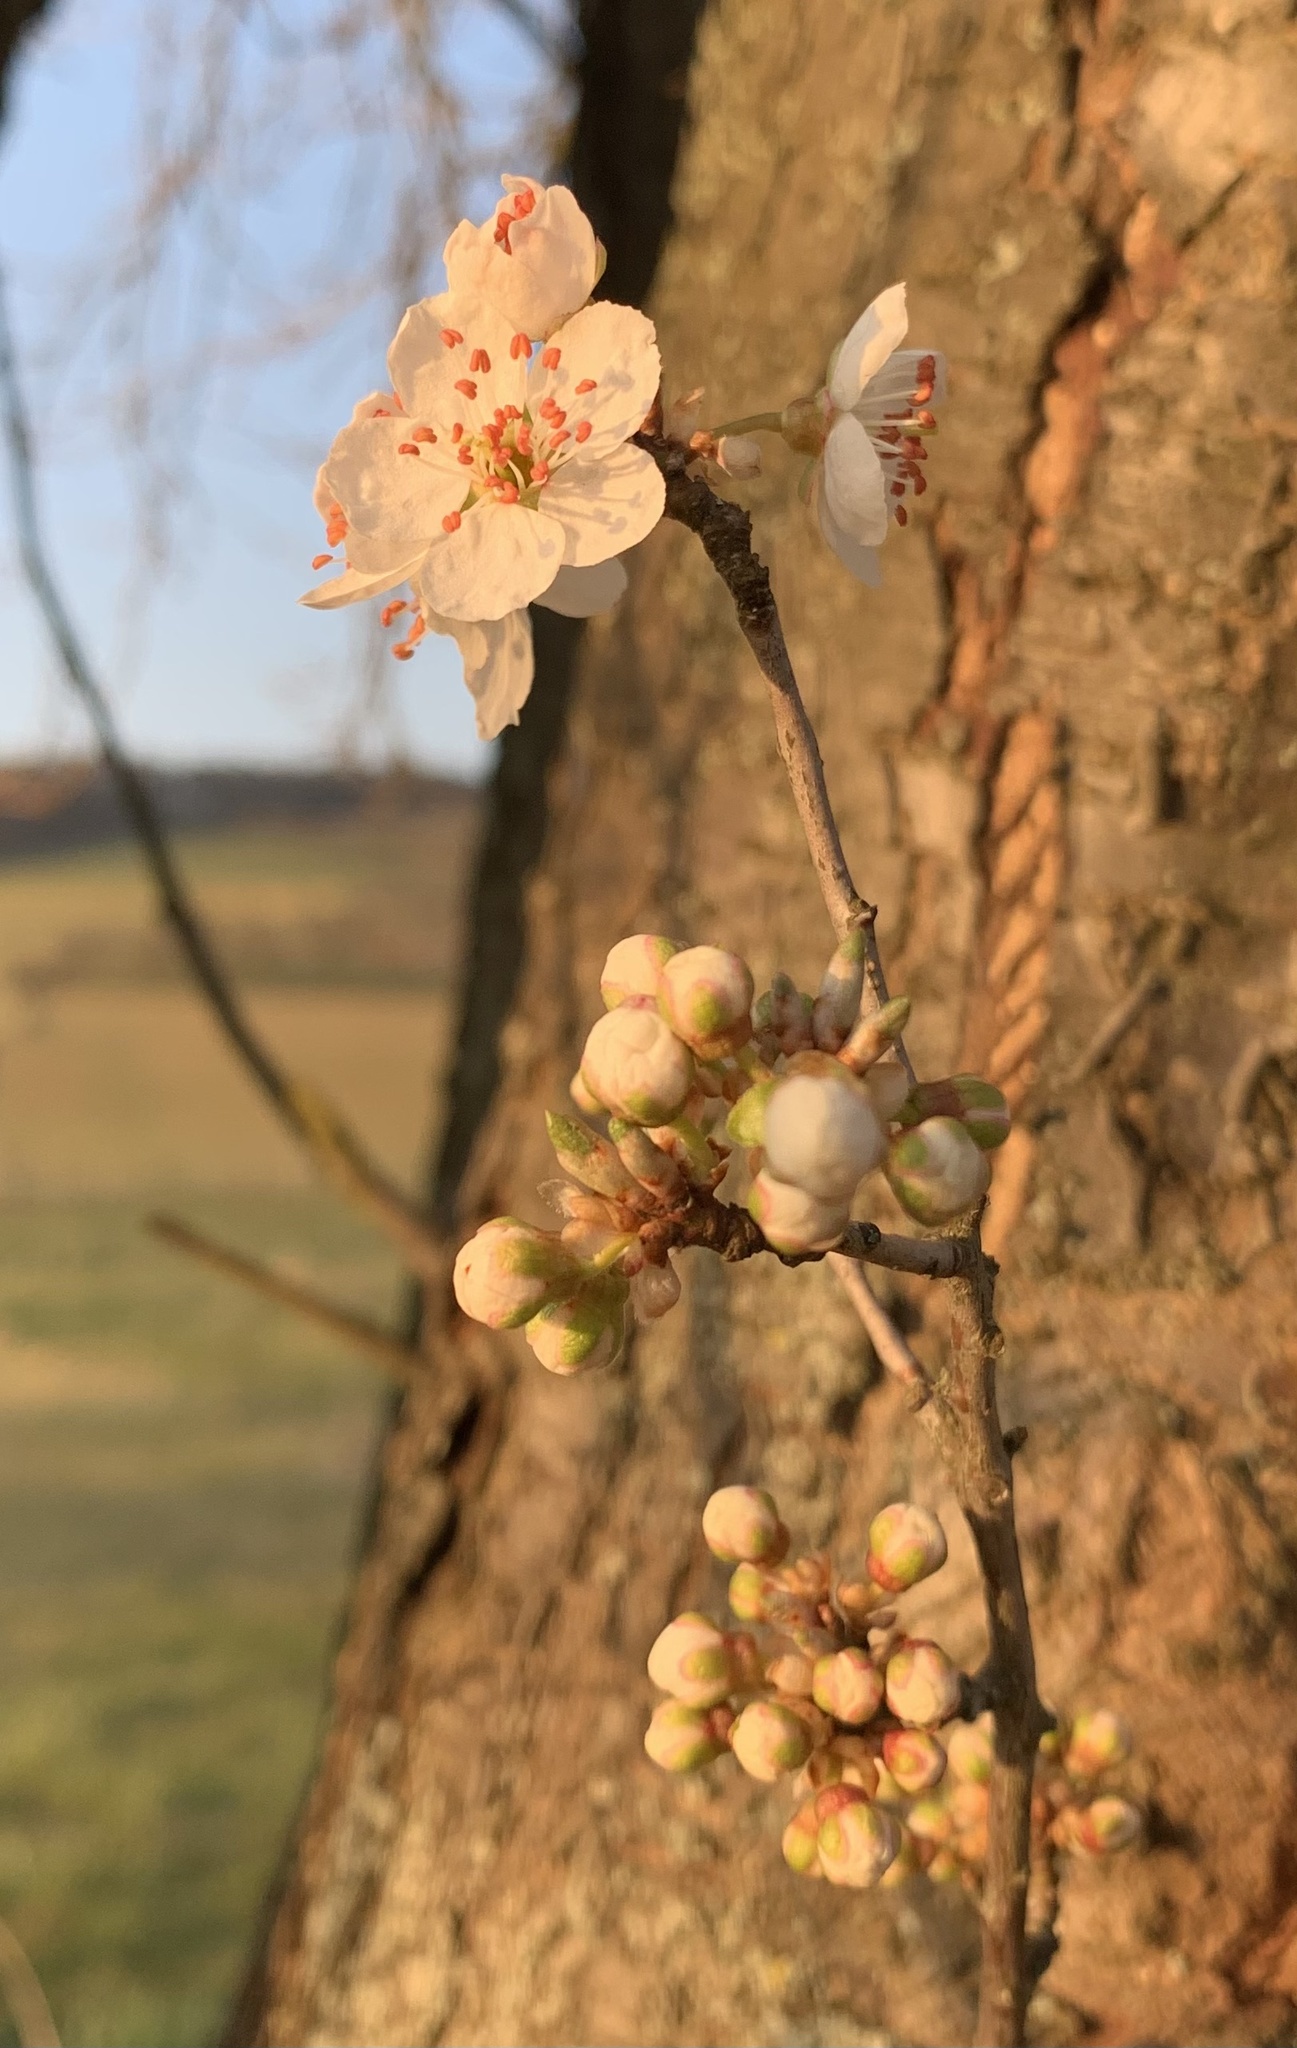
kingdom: Plantae
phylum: Tracheophyta
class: Magnoliopsida
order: Rosales
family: Rosaceae
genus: Prunus
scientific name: Prunus cerasifera
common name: Cherry plum
